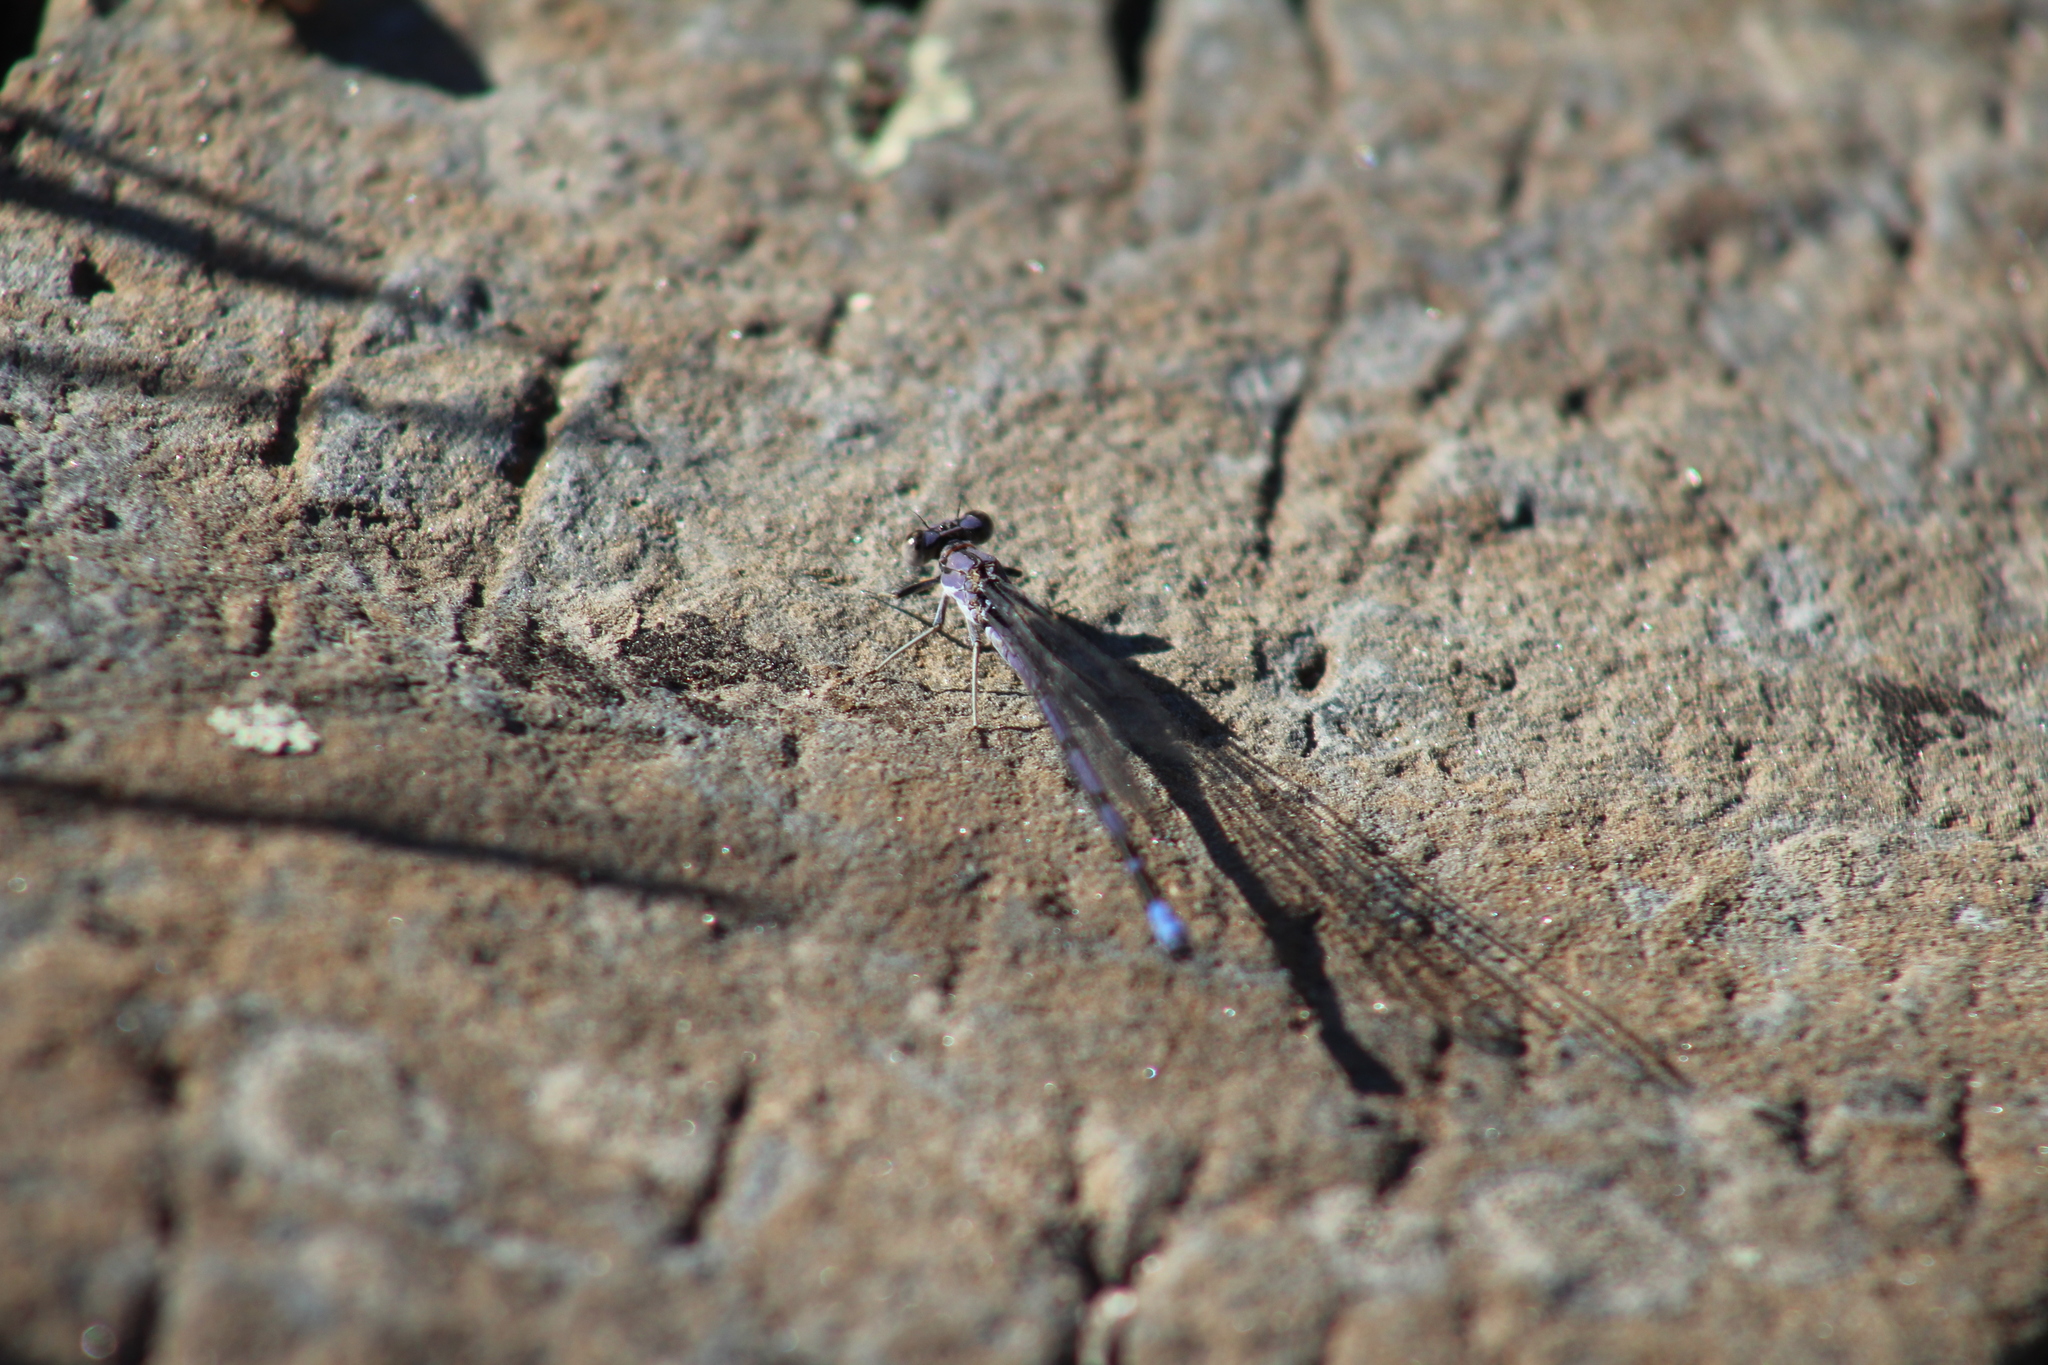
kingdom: Animalia
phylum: Arthropoda
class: Insecta
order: Odonata
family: Coenagrionidae
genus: Argia
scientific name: Argia emma
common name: Emma's dancer
